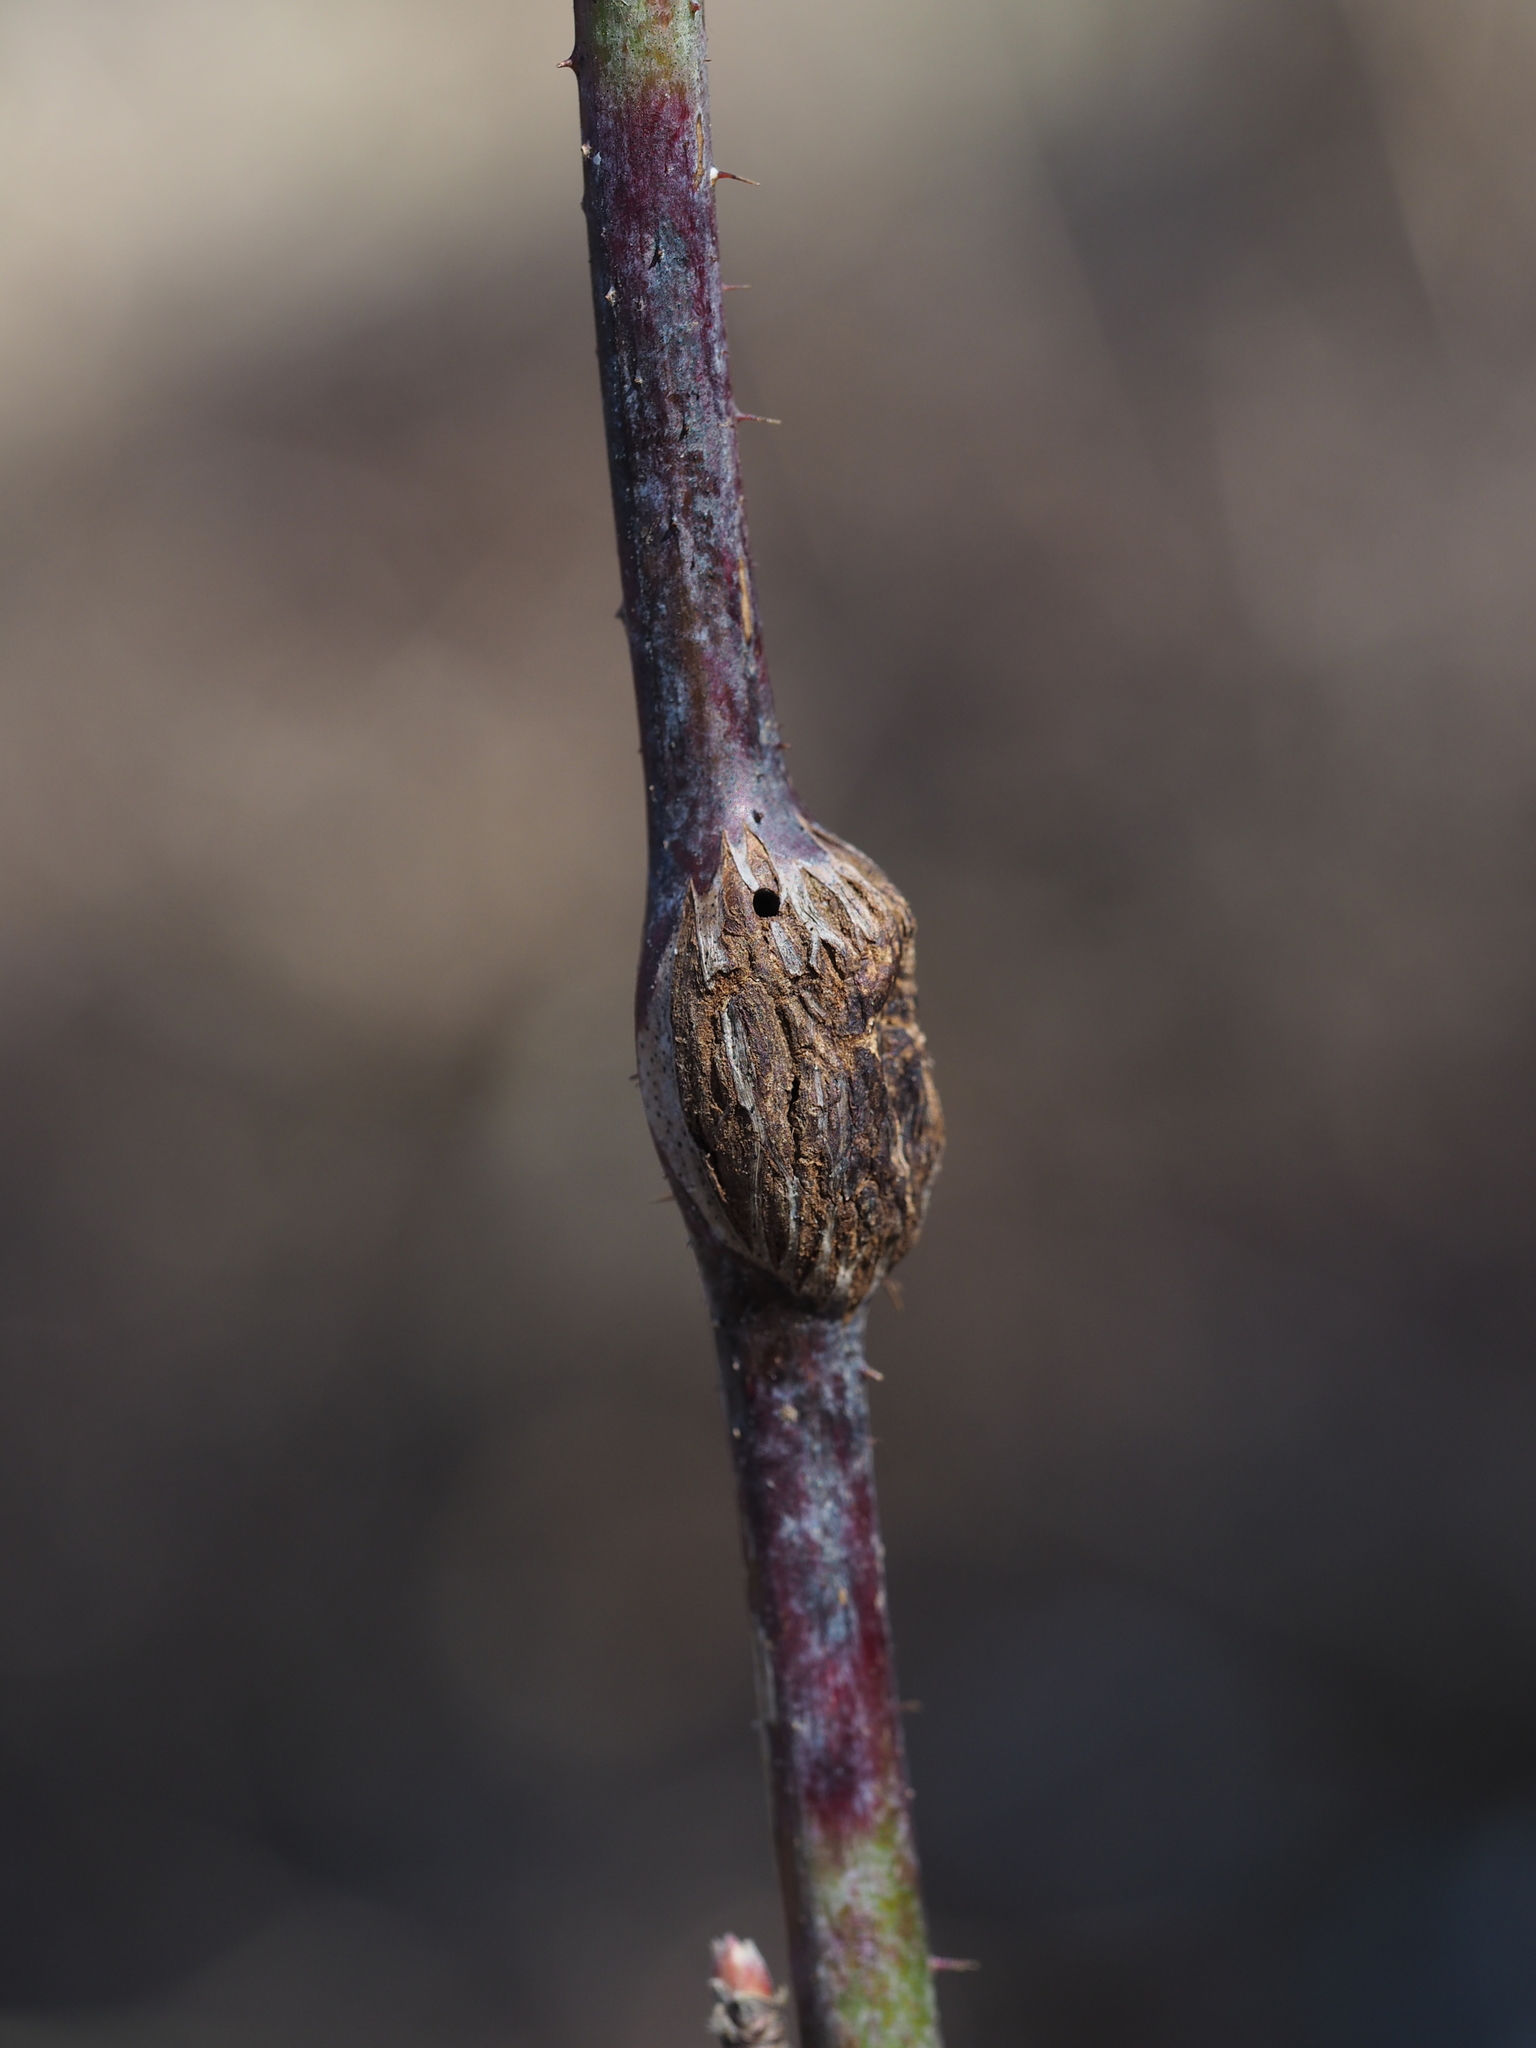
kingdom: Animalia
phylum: Arthropoda
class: Insecta
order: Diptera
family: Cecidomyiidae
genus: Lasioptera
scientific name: Lasioptera rubi
